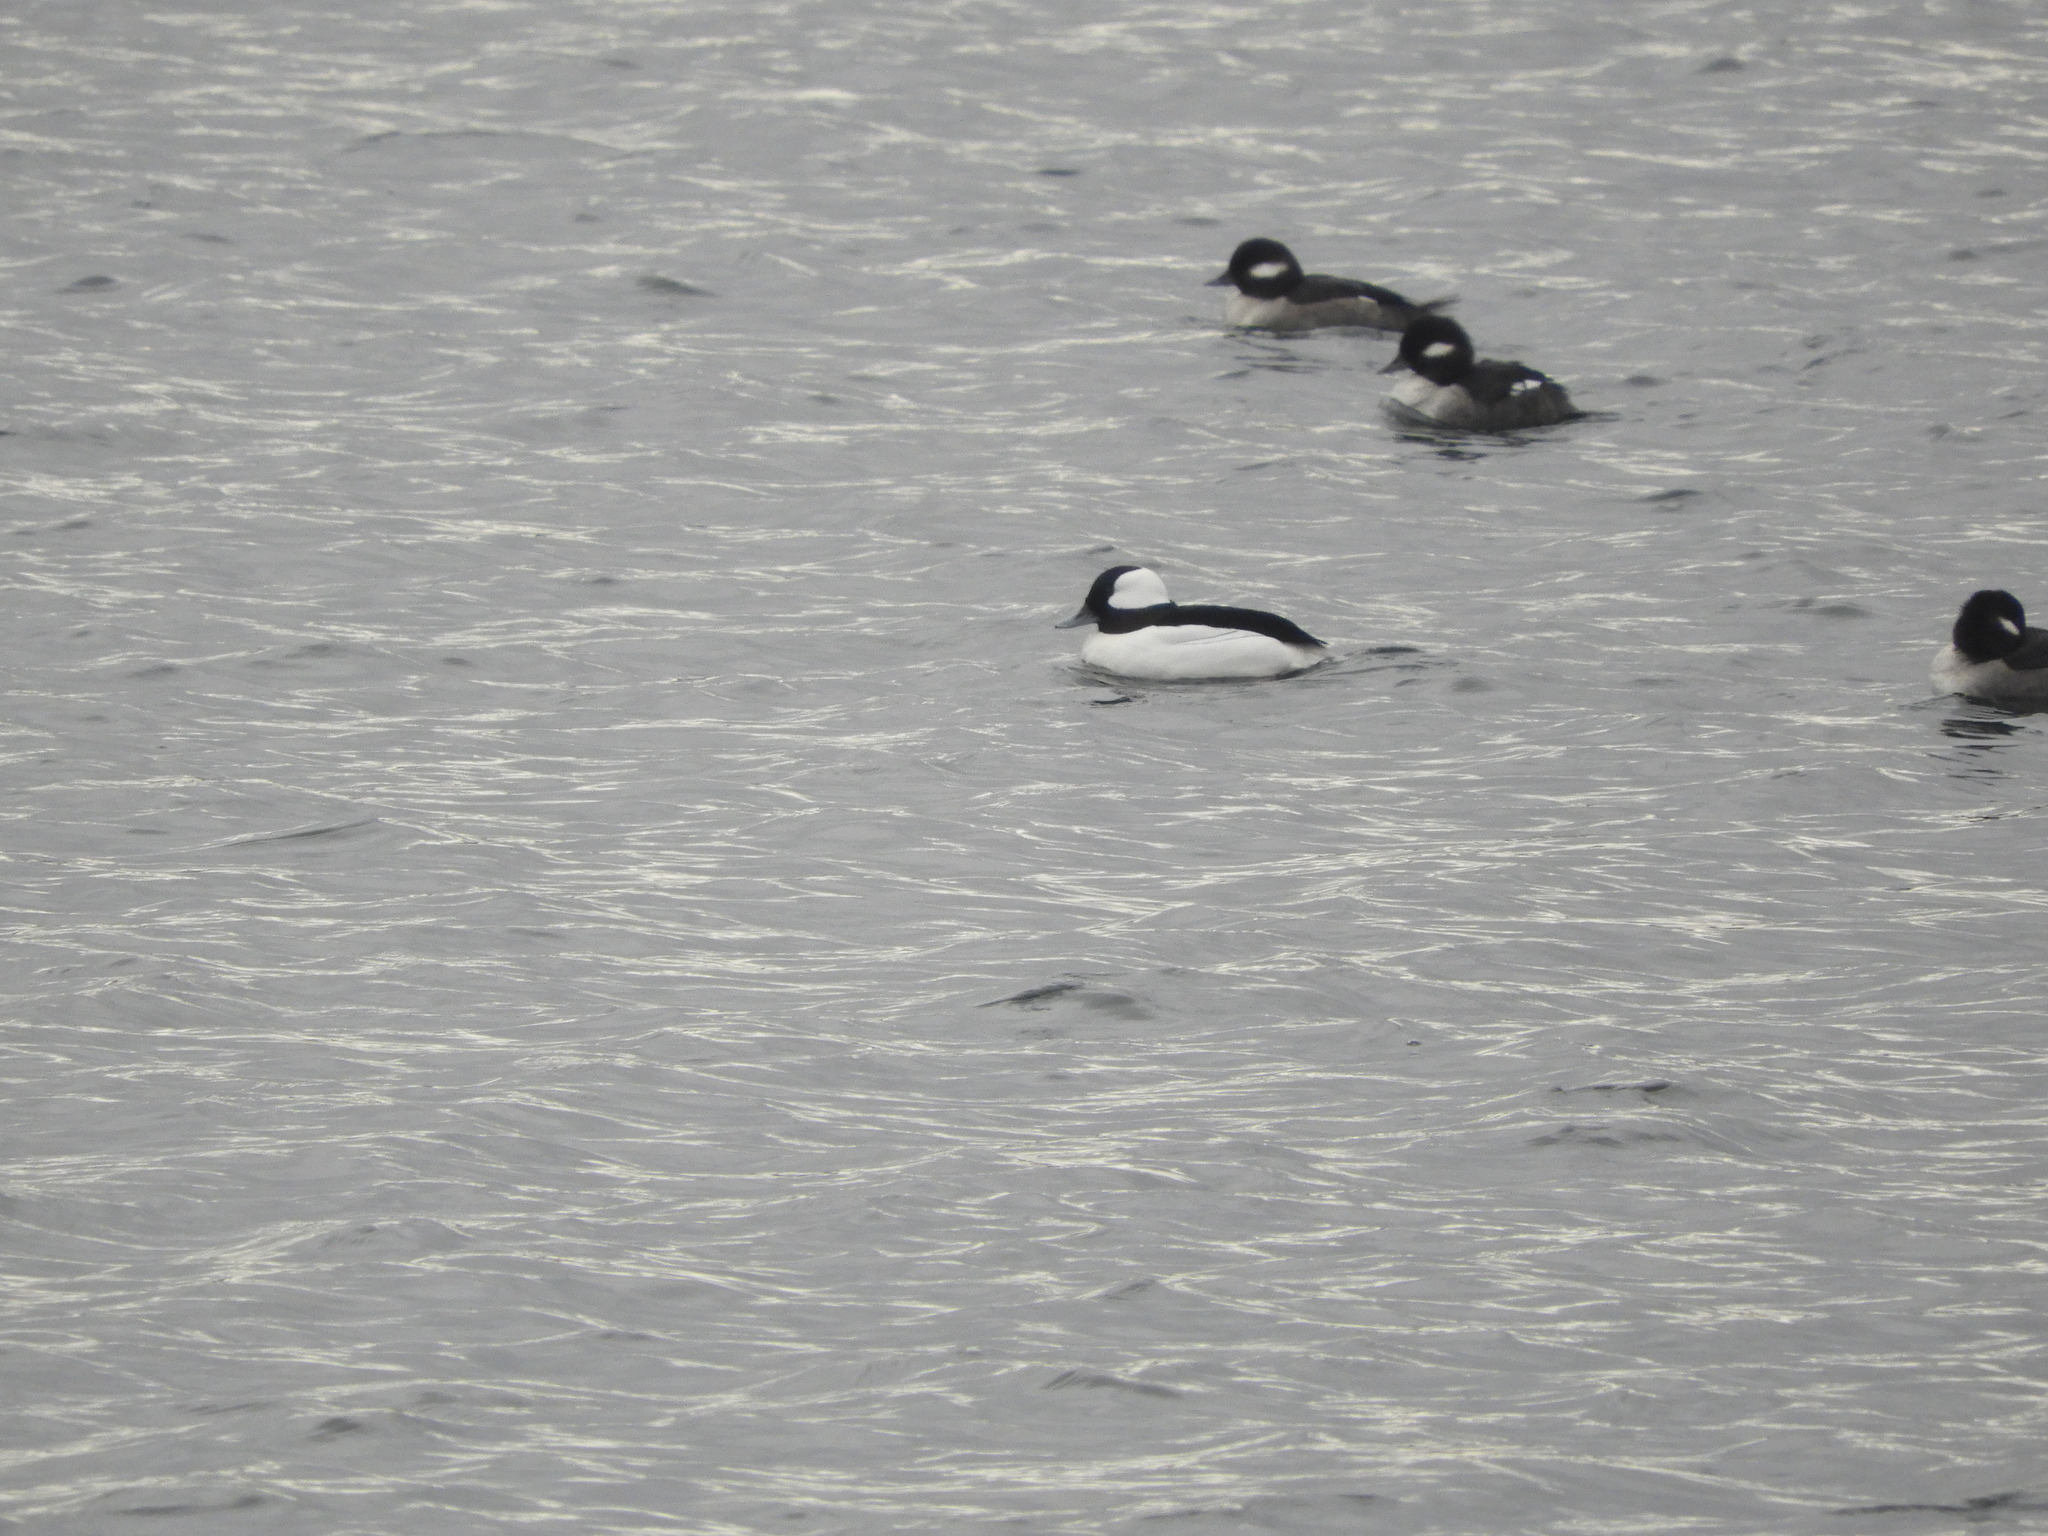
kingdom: Animalia
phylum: Chordata
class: Aves
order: Anseriformes
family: Anatidae
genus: Bucephala
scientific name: Bucephala albeola
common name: Bufflehead
